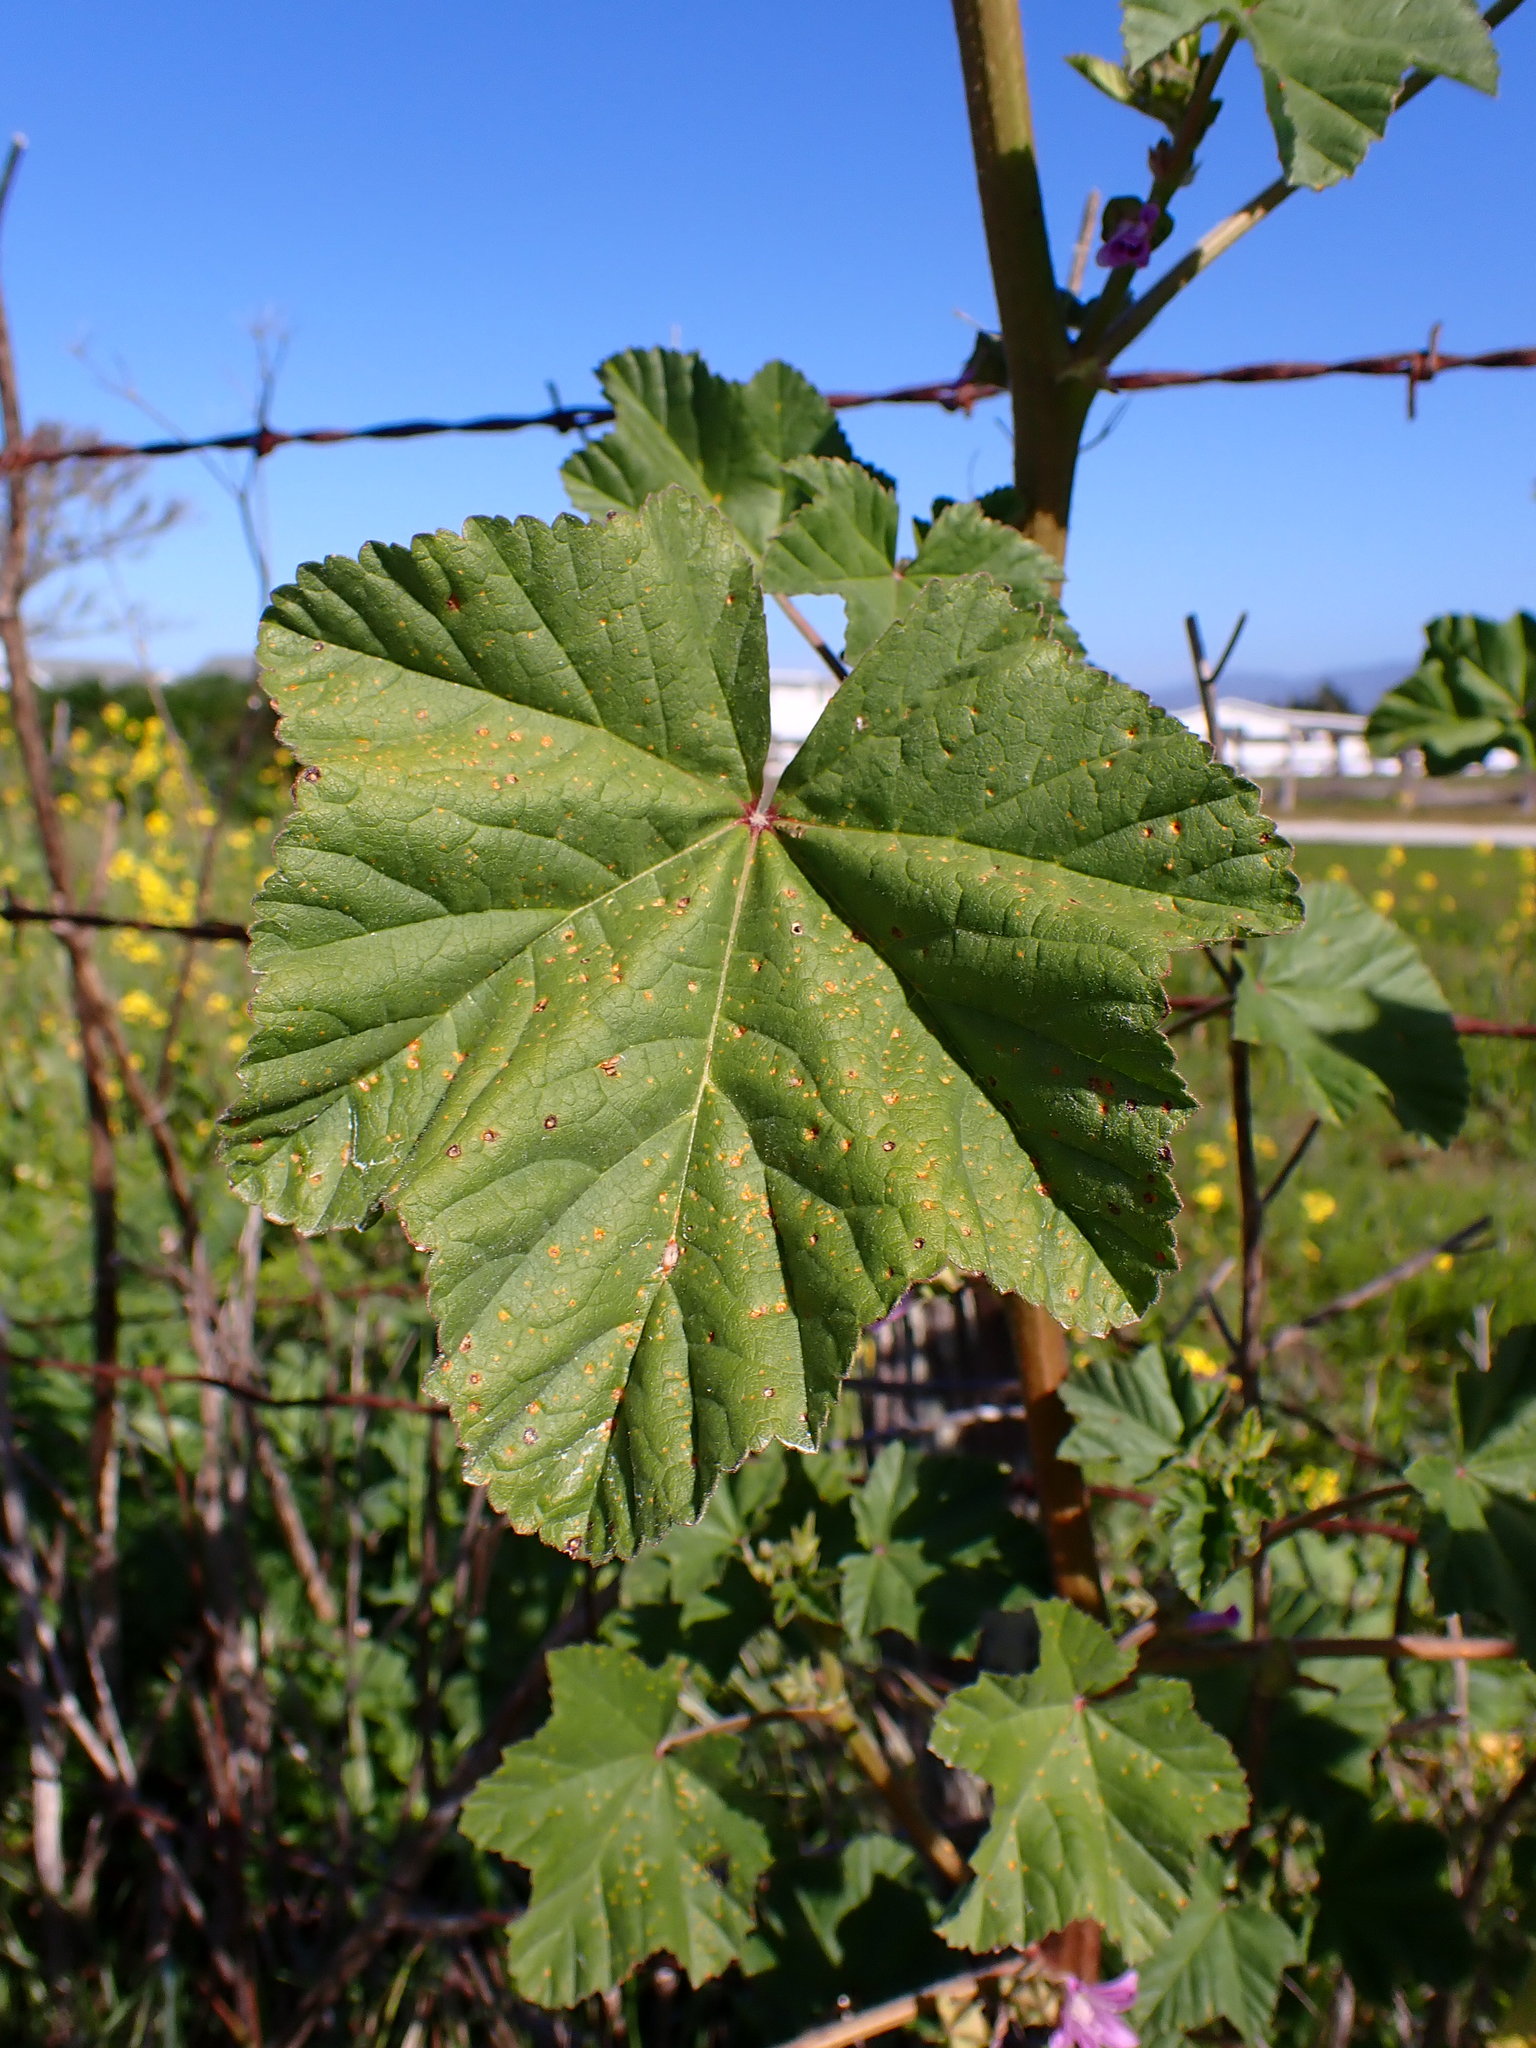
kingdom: Plantae
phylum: Tracheophyta
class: Magnoliopsida
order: Malvales
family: Malvaceae
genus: Malva
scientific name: Malva multiflora
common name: Cheeseweed
